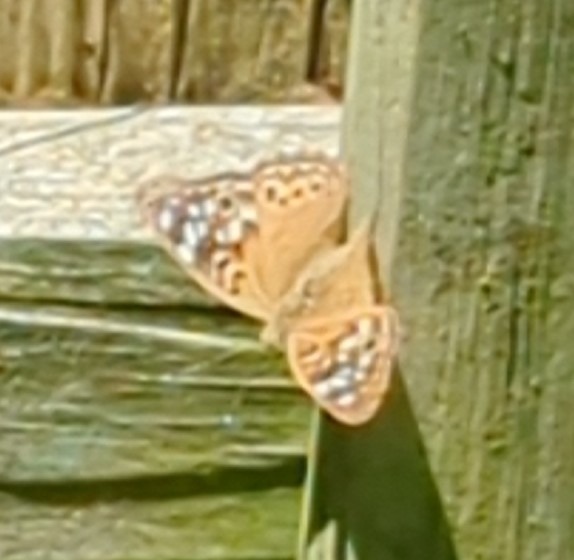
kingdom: Animalia
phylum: Arthropoda
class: Insecta
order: Lepidoptera
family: Nymphalidae
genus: Asterocampa
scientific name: Asterocampa celtis
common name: Hackberry emperor
